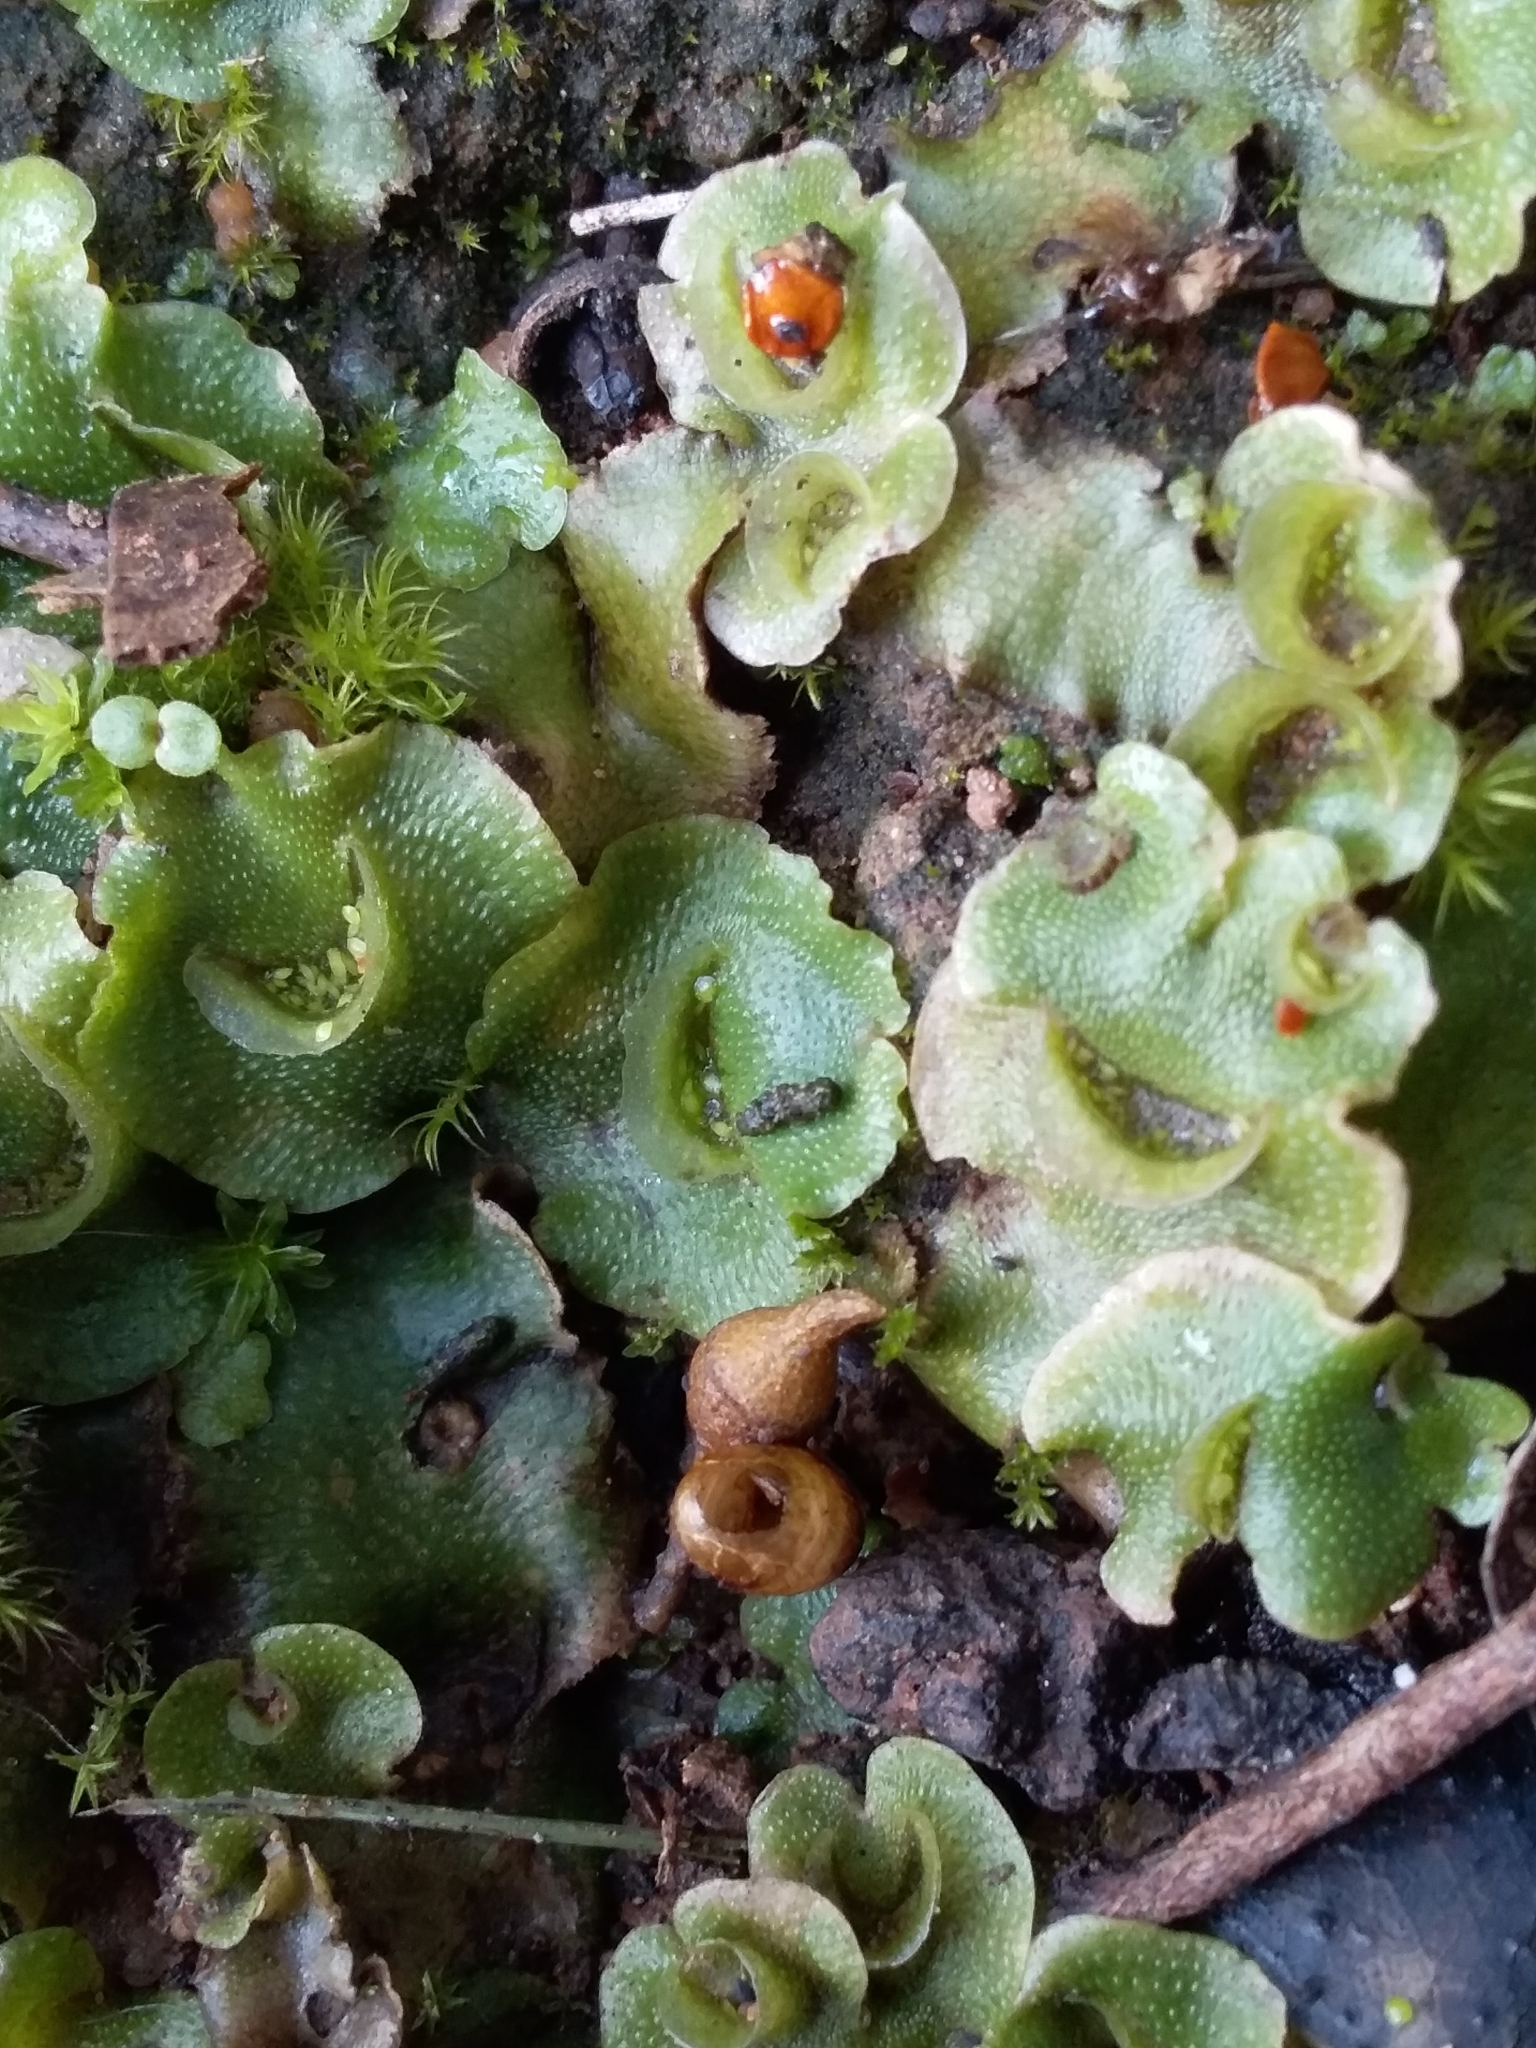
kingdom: Plantae
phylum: Marchantiophyta
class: Marchantiopsida
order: Lunulariales
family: Lunulariaceae
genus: Lunularia
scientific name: Lunularia cruciata
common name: Crescent-cup liverwort
